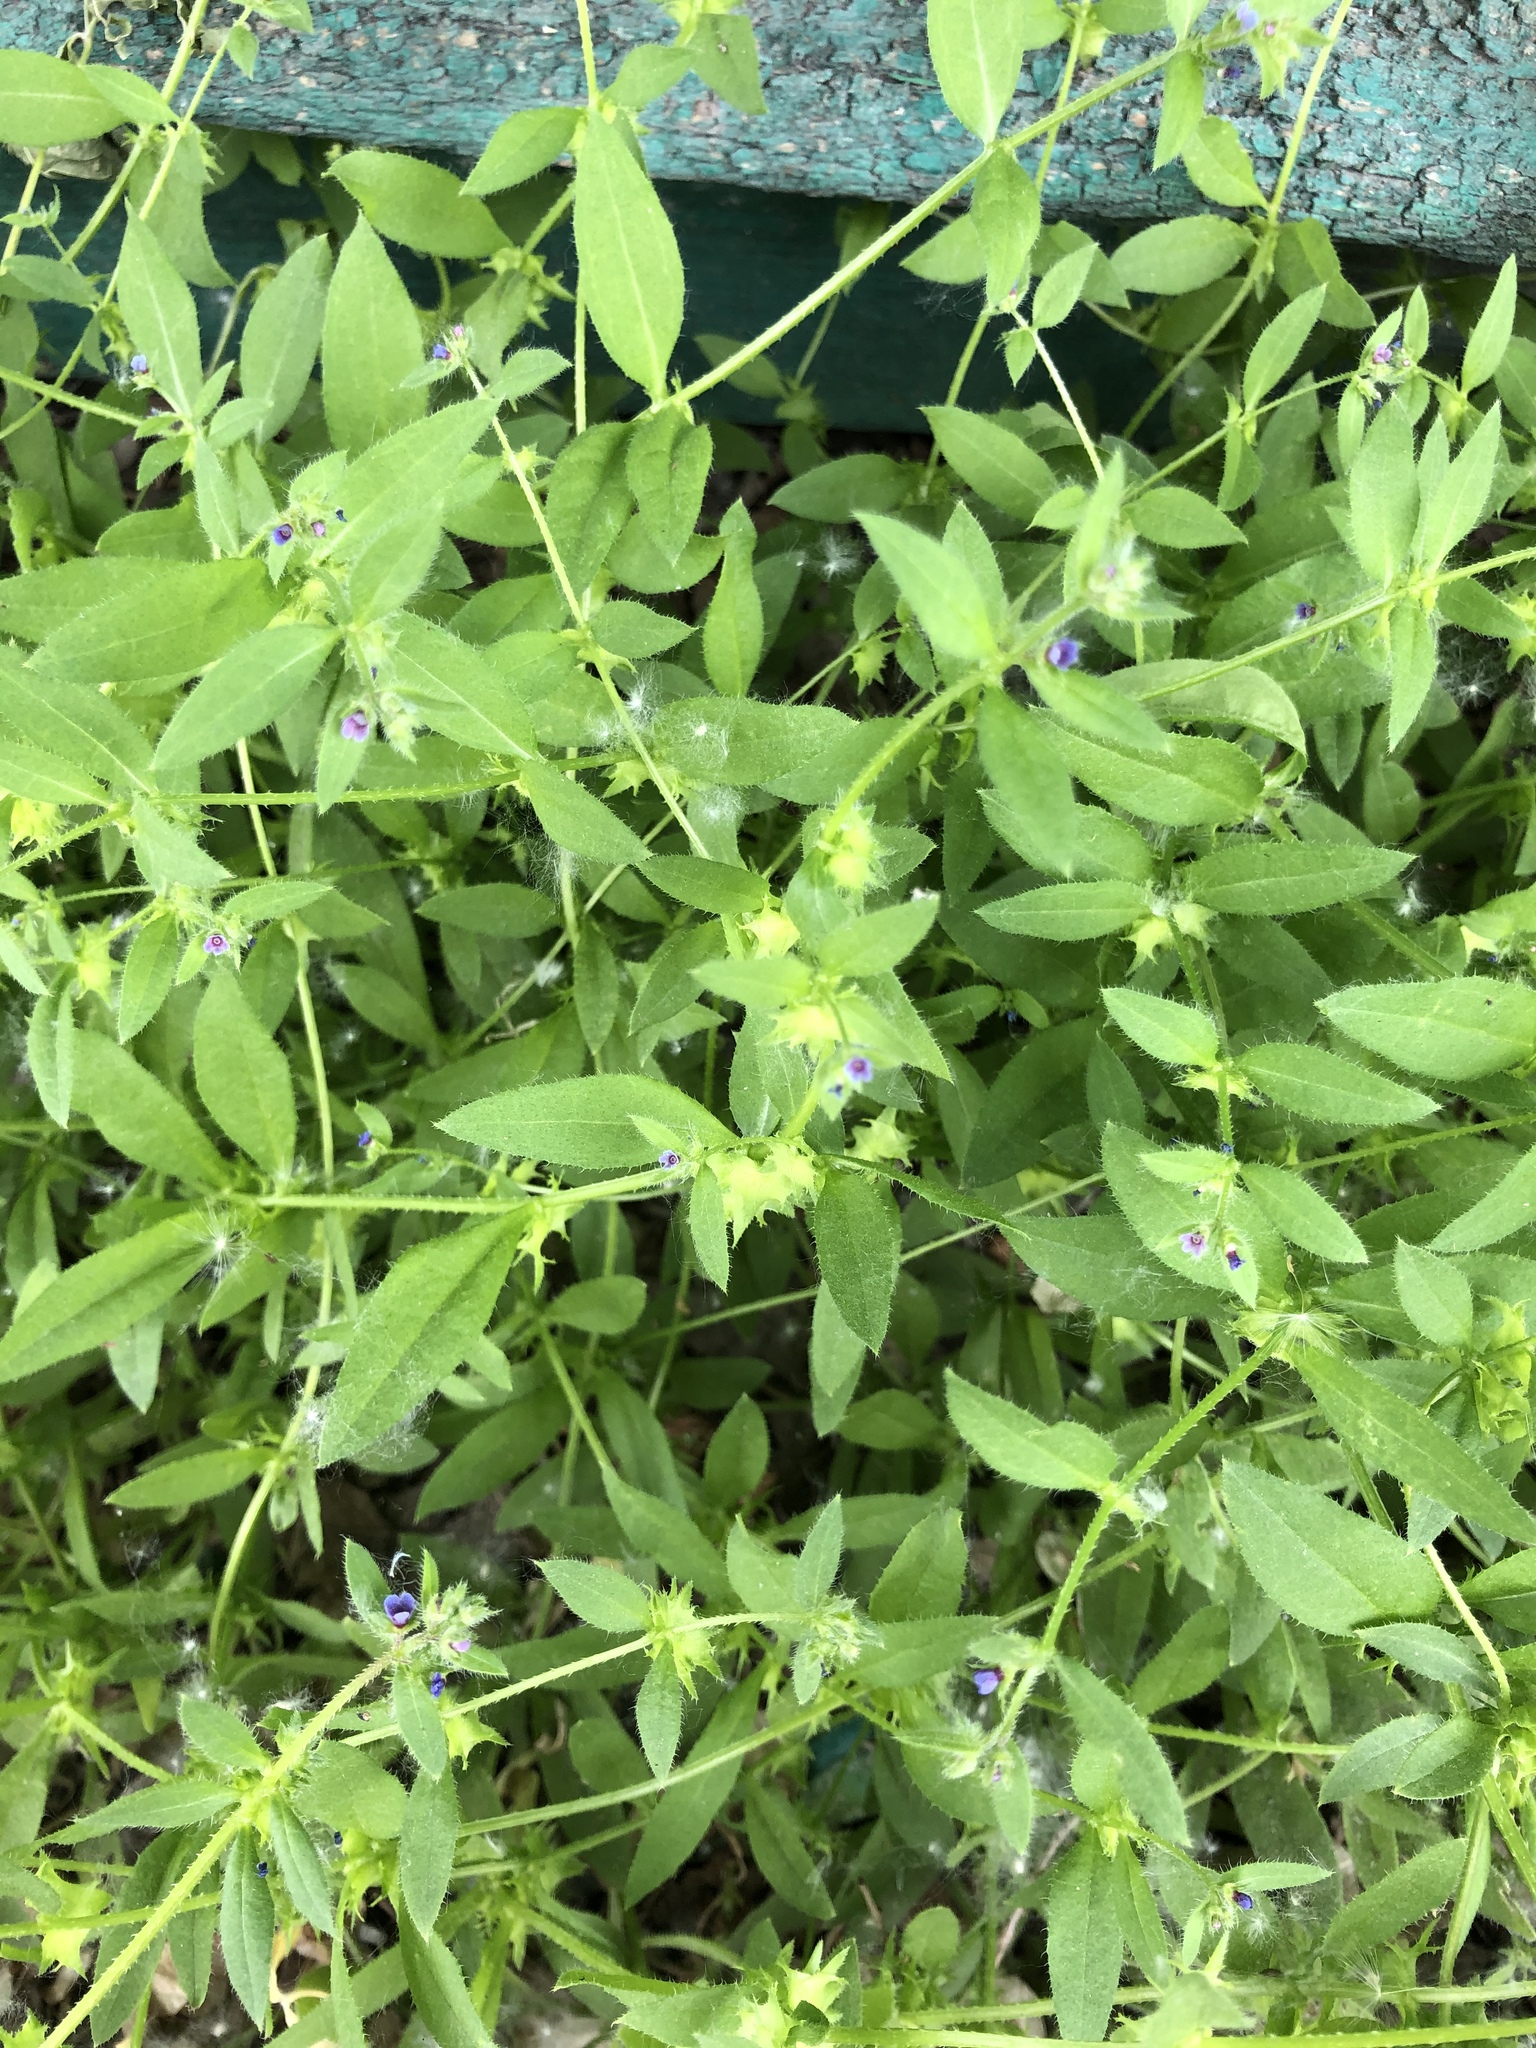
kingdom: Plantae
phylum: Tracheophyta
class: Magnoliopsida
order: Boraginales
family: Boraginaceae
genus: Asperugo
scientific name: Asperugo procumbens
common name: Madwort
